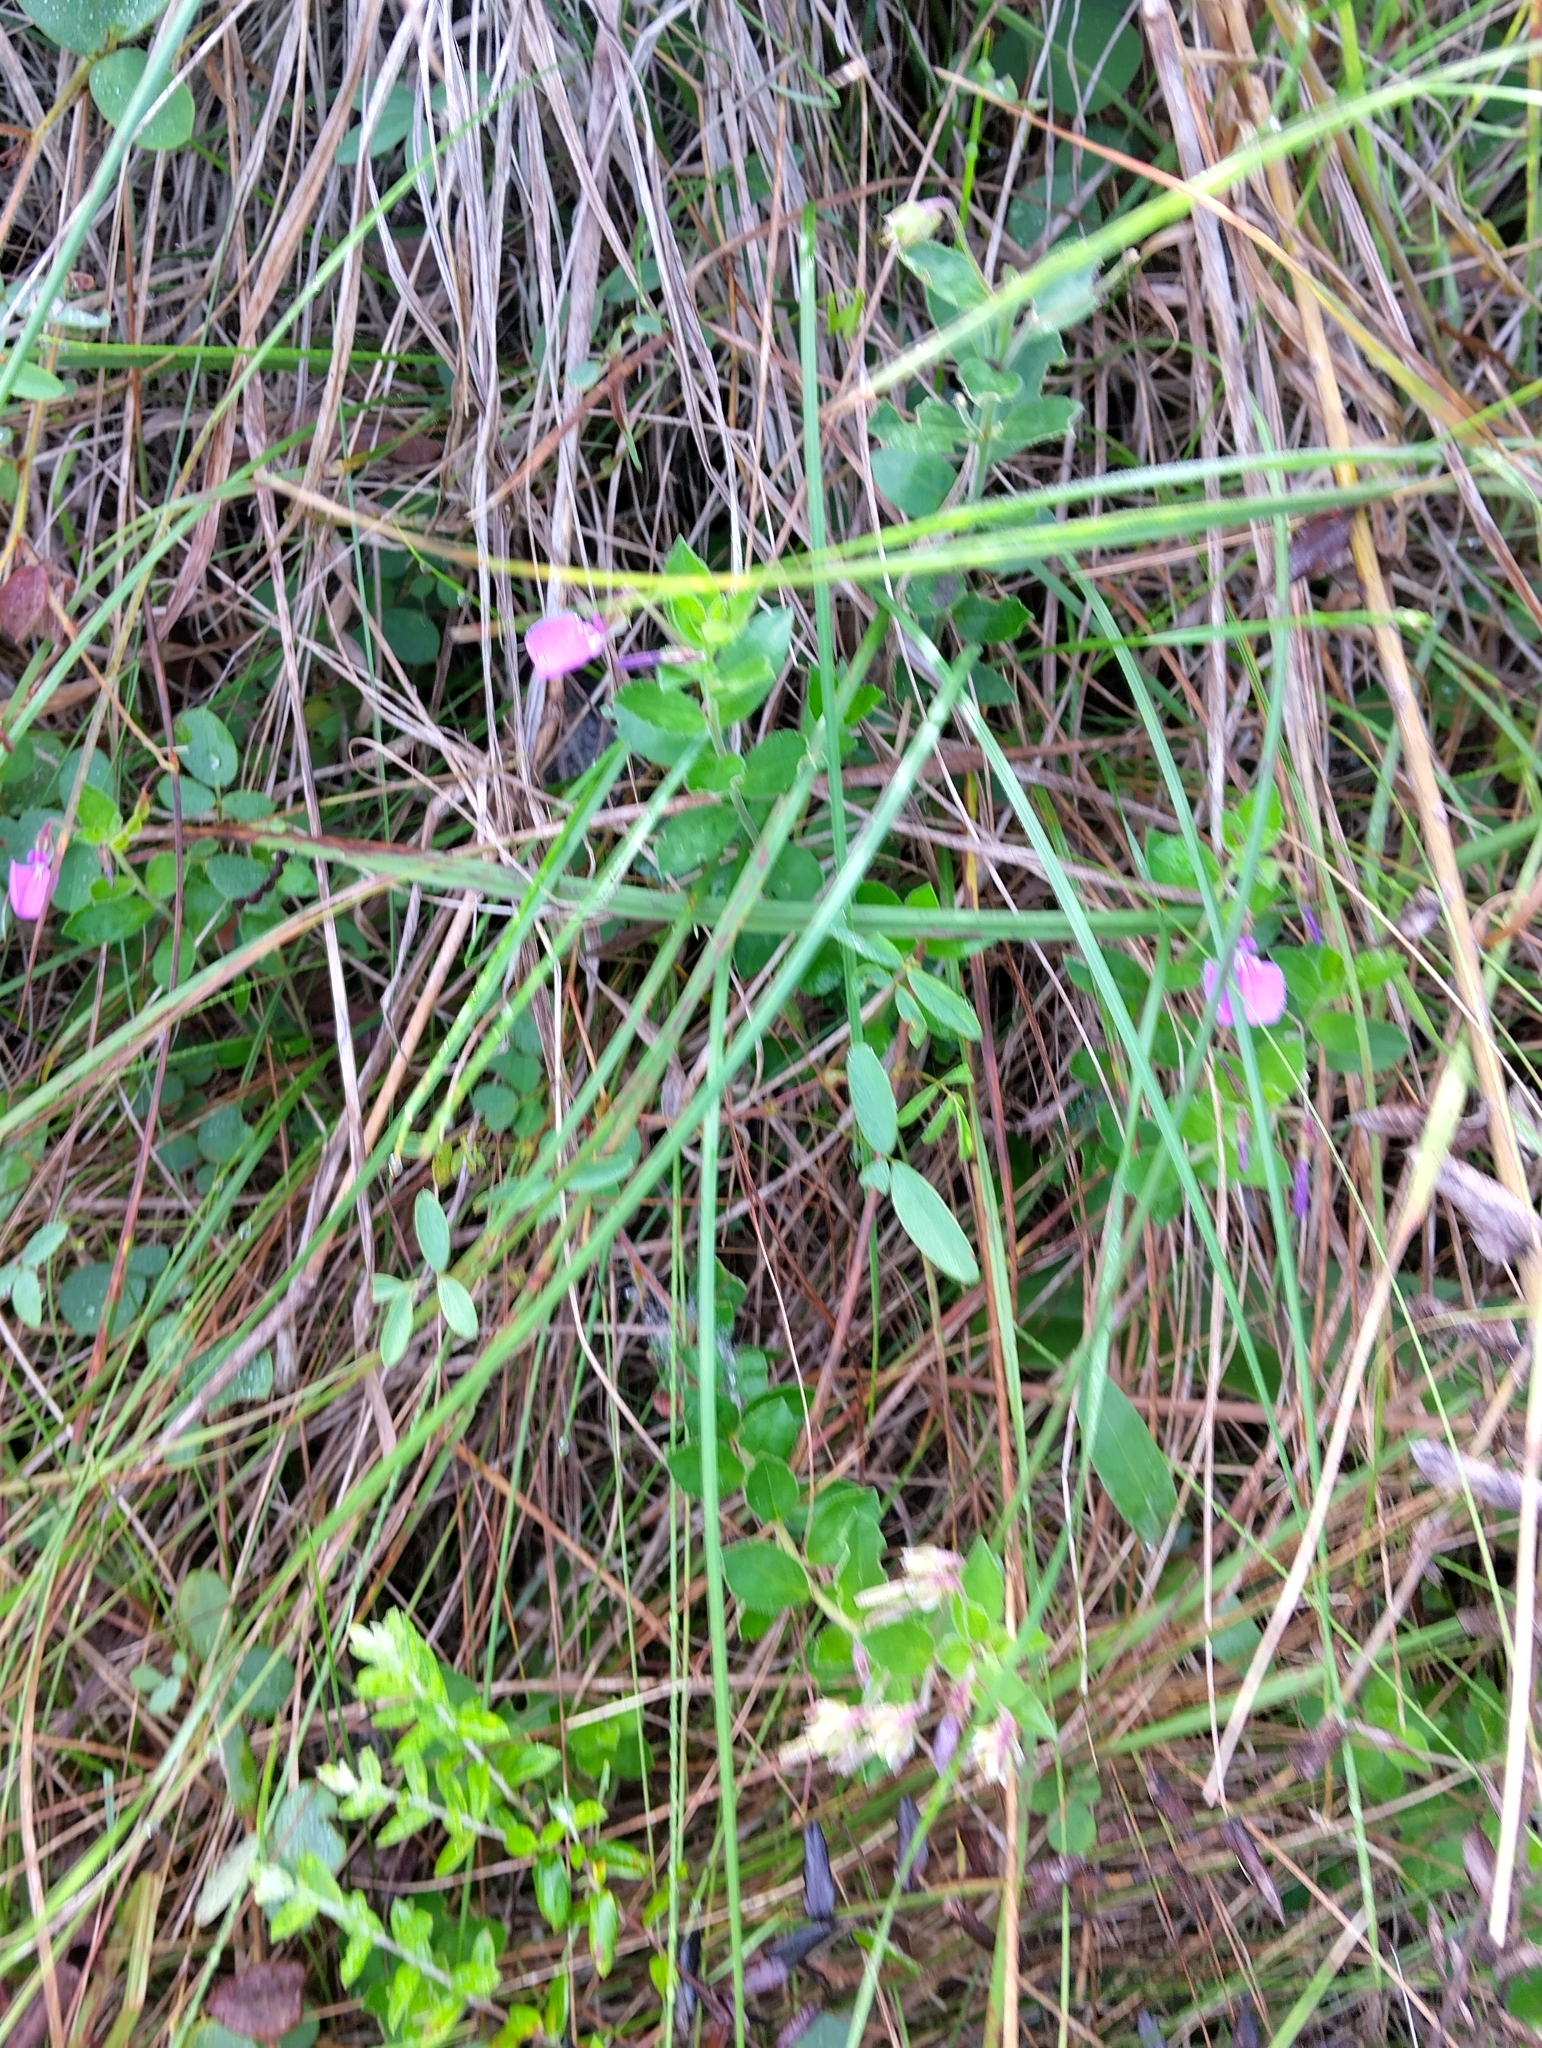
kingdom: Plantae
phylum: Tracheophyta
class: Magnoliopsida
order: Malpighiales
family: Violaceae
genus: Pigea
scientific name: Pigea enneasperma
